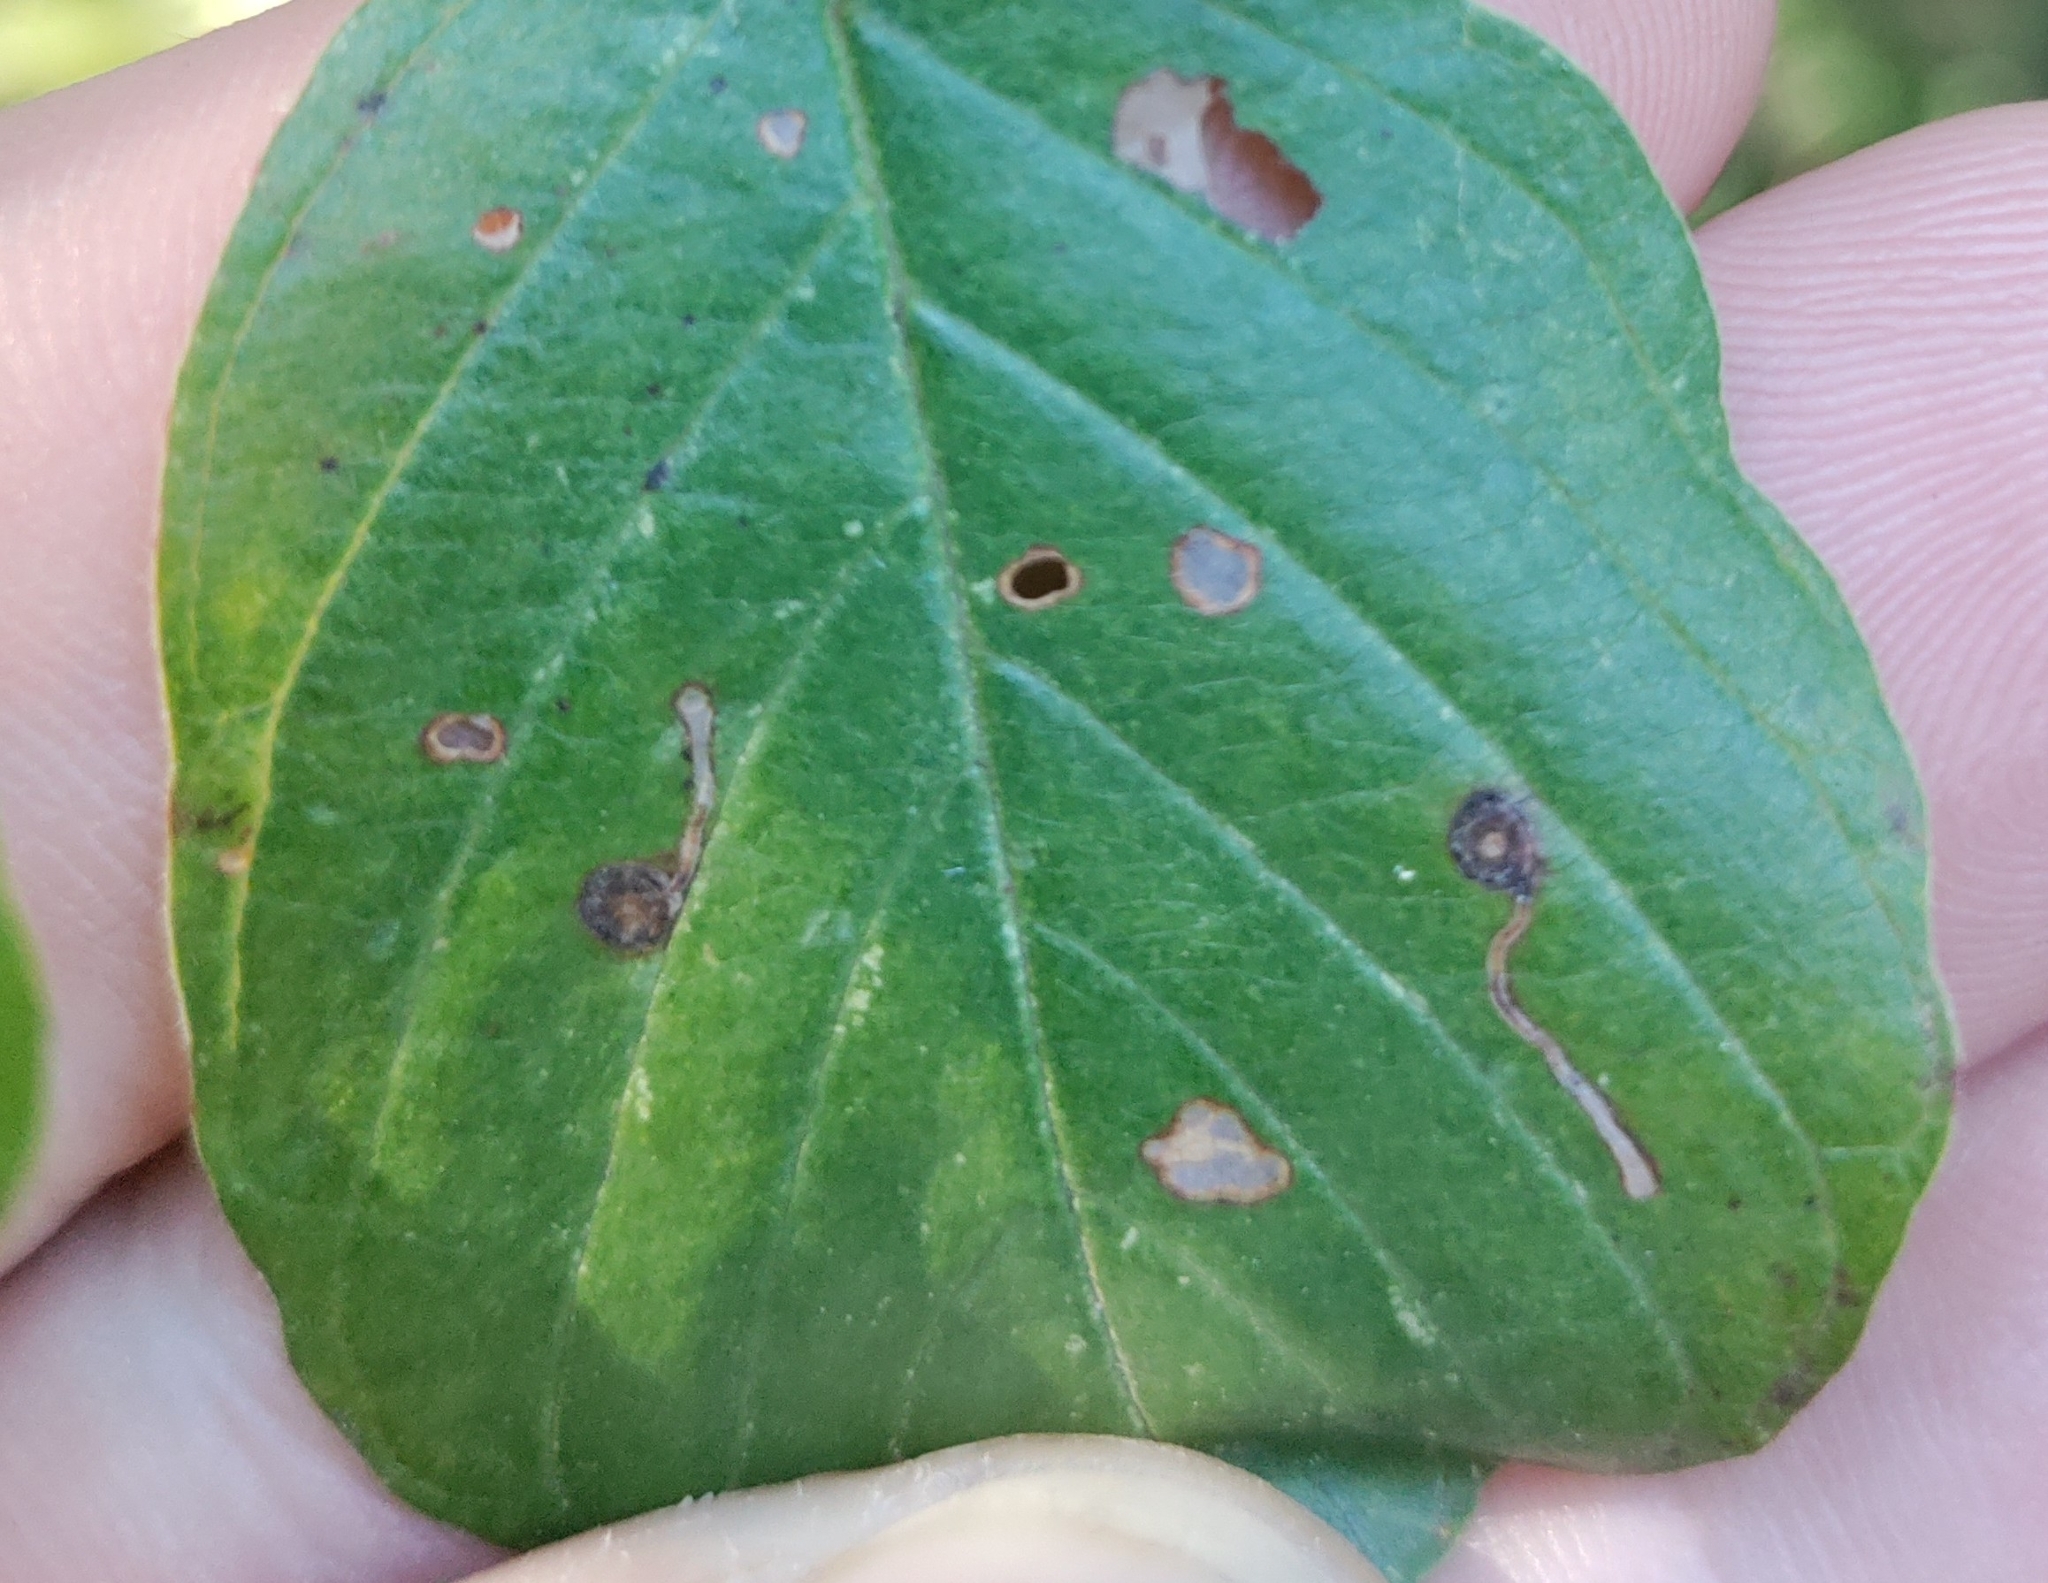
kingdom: Animalia
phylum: Arthropoda
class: Insecta
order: Lepidoptera
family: Bucculatricidae
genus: Bucculatrix
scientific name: Bucculatrix frangutella
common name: Buckthorn bent-wing
